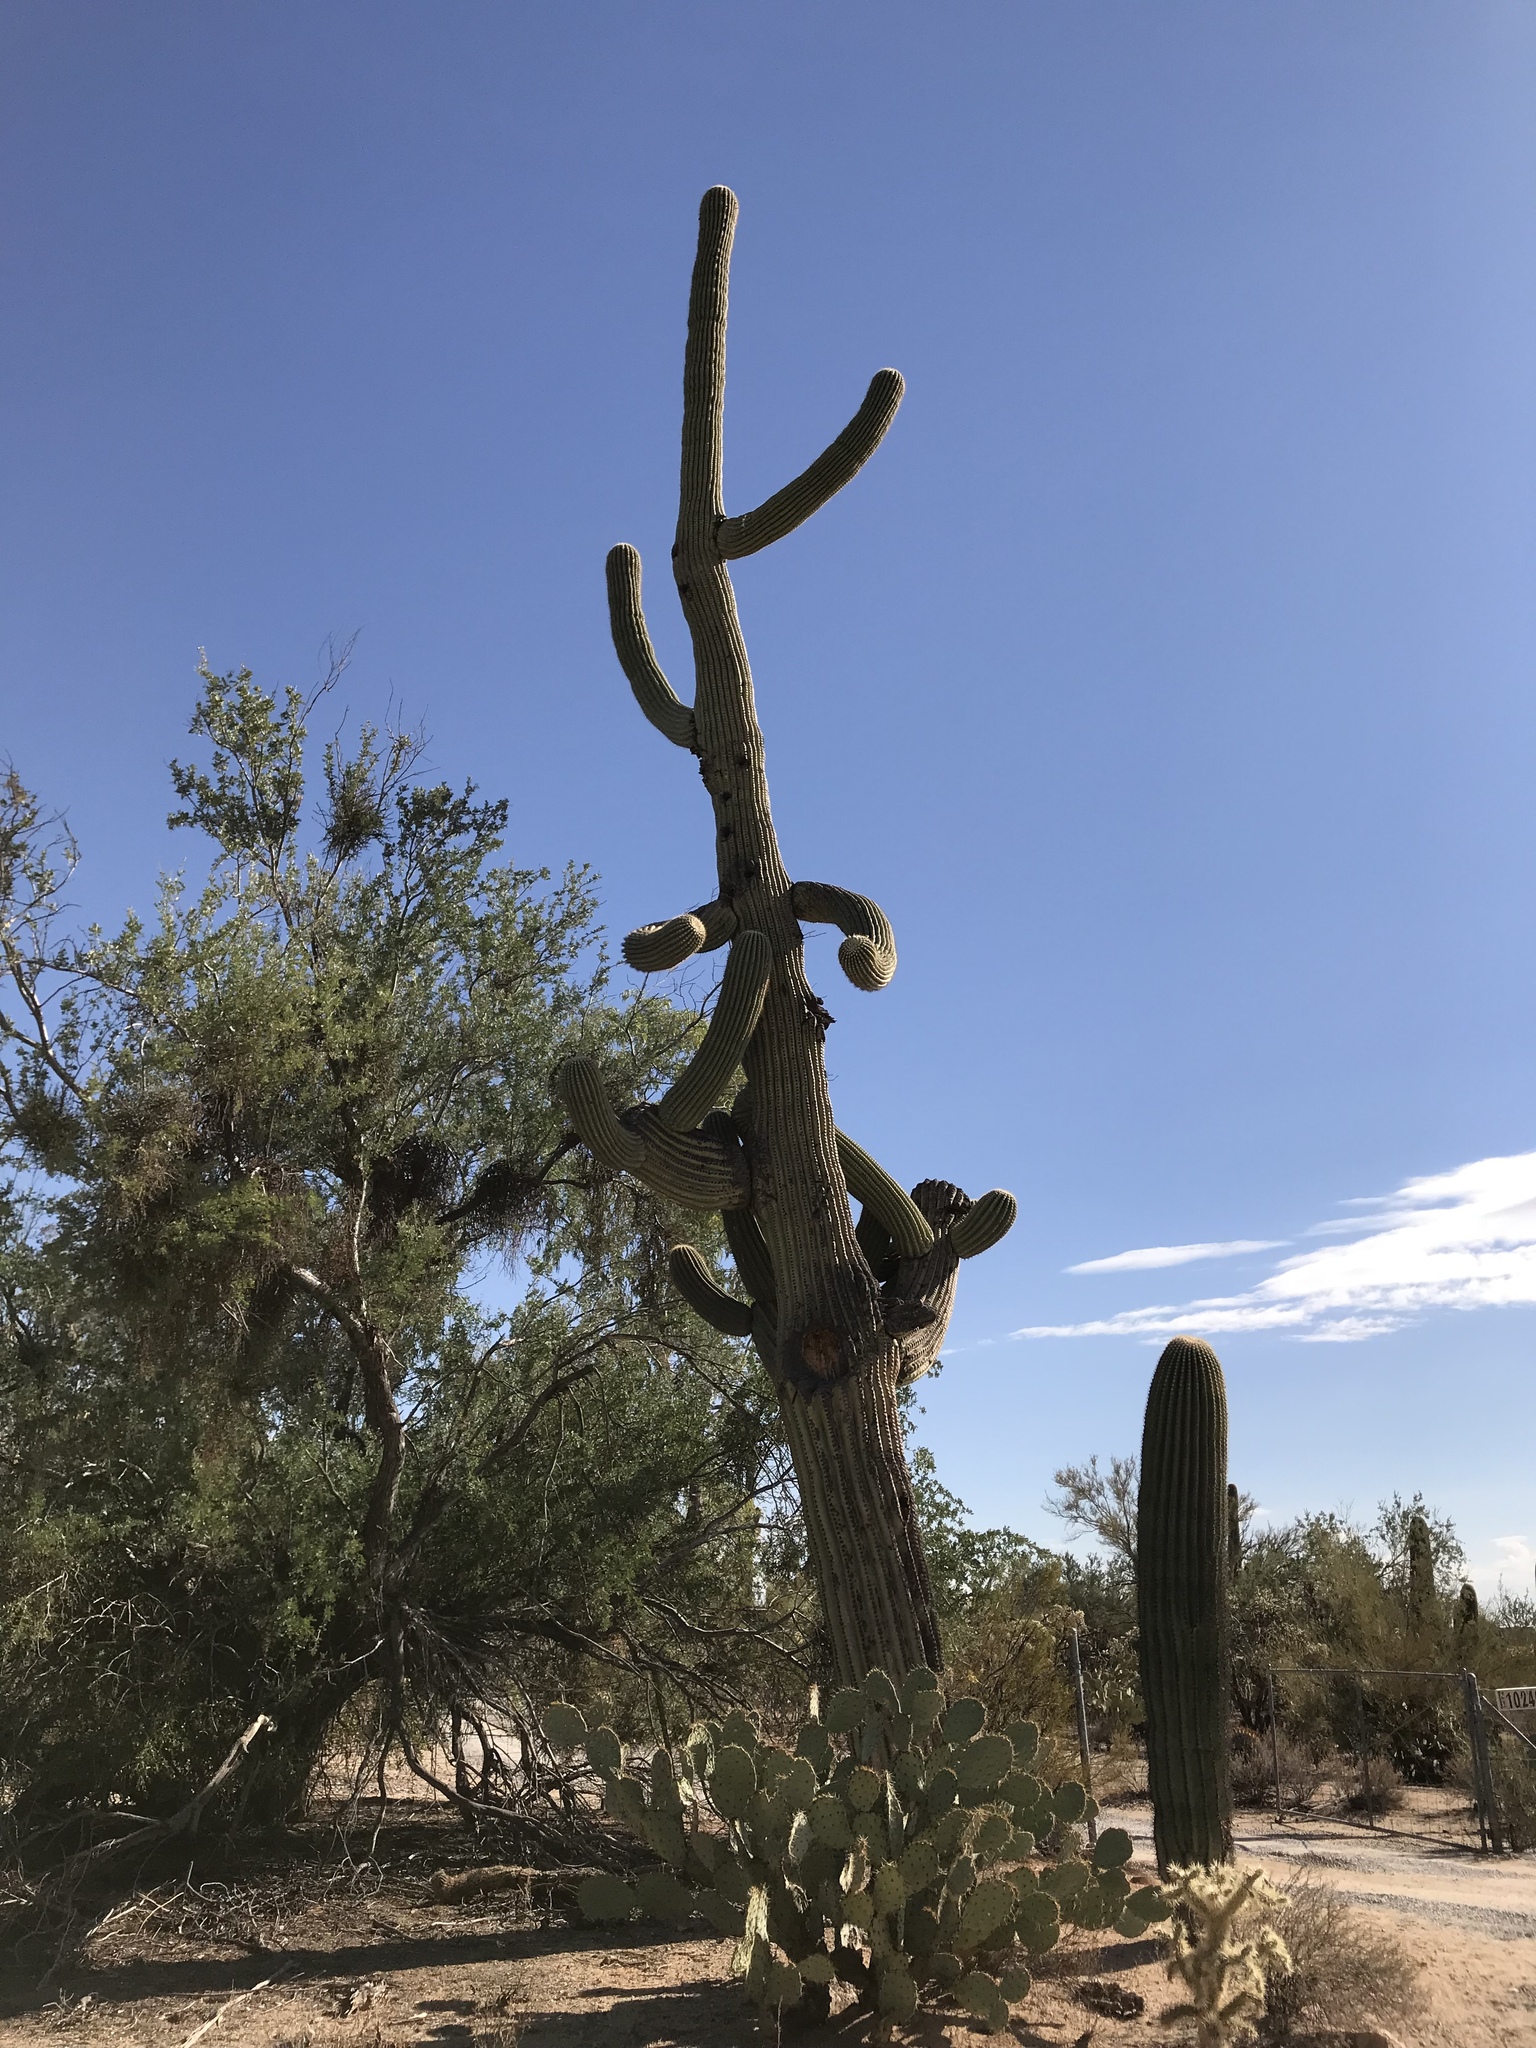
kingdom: Plantae
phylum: Tracheophyta
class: Magnoliopsida
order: Caryophyllales
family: Cactaceae
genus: Carnegiea
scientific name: Carnegiea gigantea
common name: Saguaro
